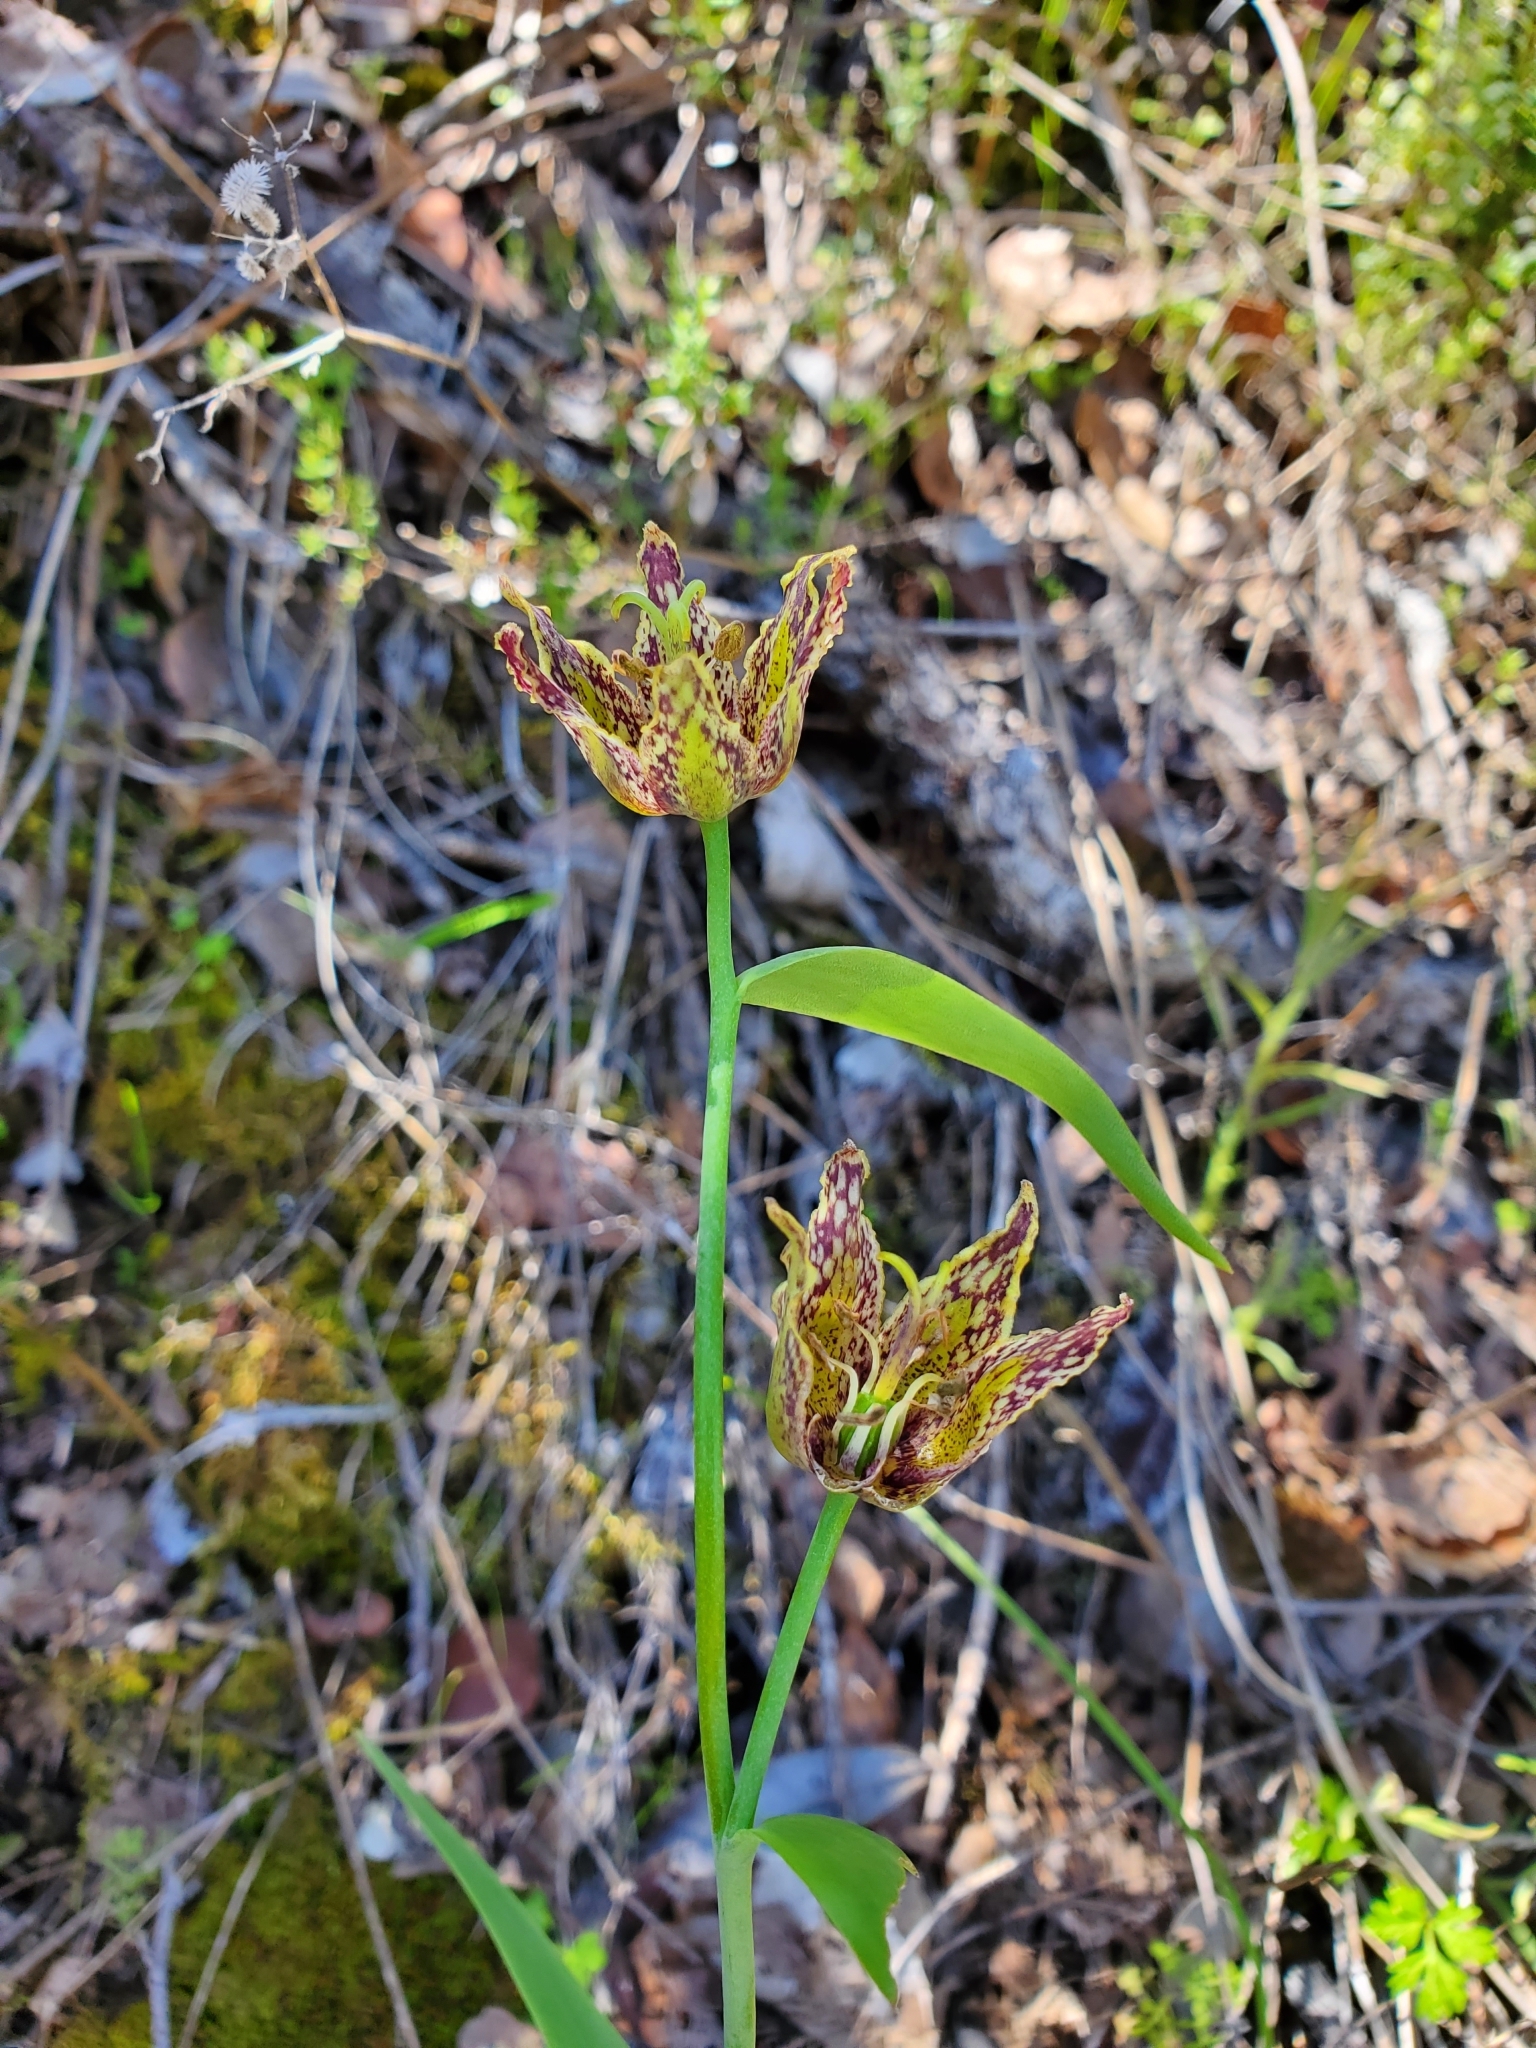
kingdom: Plantae
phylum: Tracheophyta
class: Liliopsida
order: Liliales
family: Liliaceae
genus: Fritillaria
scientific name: Fritillaria affinis
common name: Ojai fritillary
